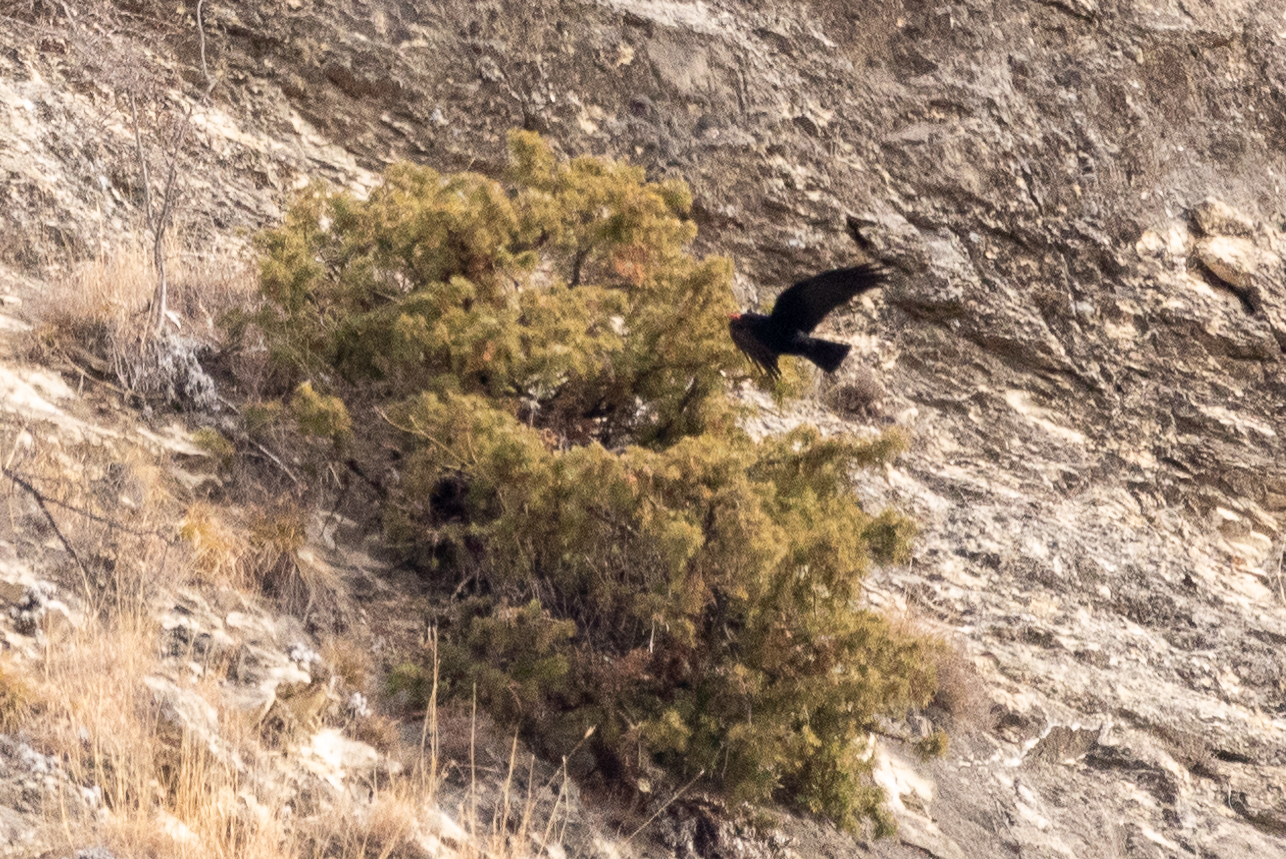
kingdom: Animalia
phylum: Chordata
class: Aves
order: Passeriformes
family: Corvidae
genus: Pyrrhocorax
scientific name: Pyrrhocorax pyrrhocorax
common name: Red-billed chough
